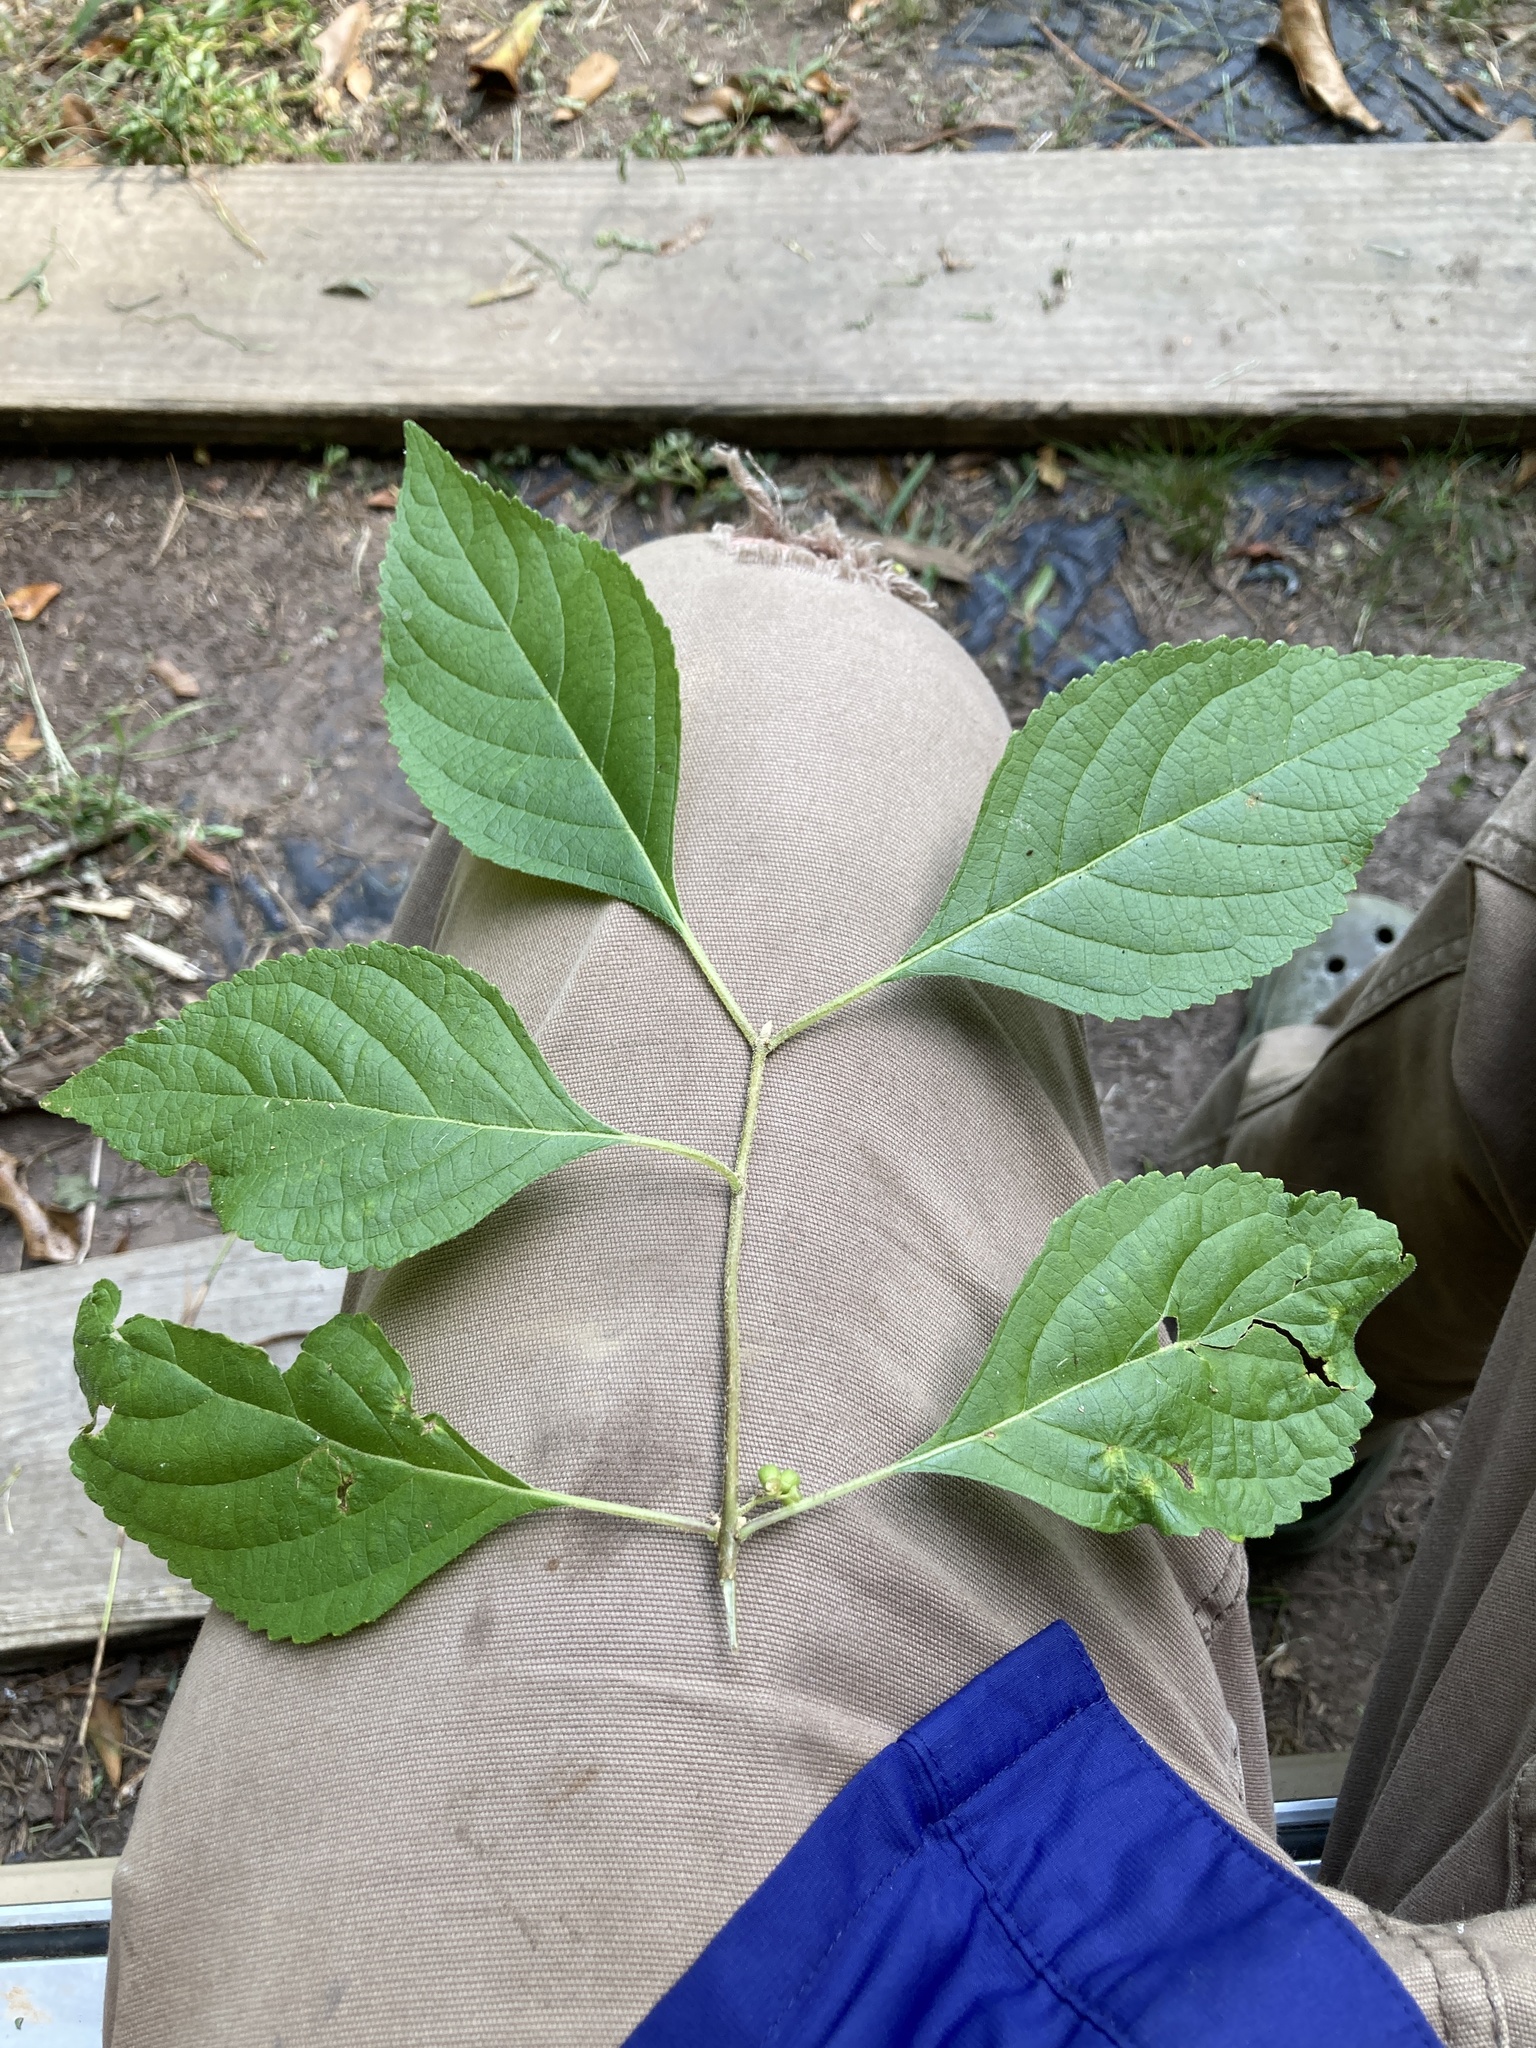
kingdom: Plantae
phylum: Tracheophyta
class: Magnoliopsida
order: Lamiales
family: Lamiaceae
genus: Callicarpa
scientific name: Callicarpa americana
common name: American beautyberry
